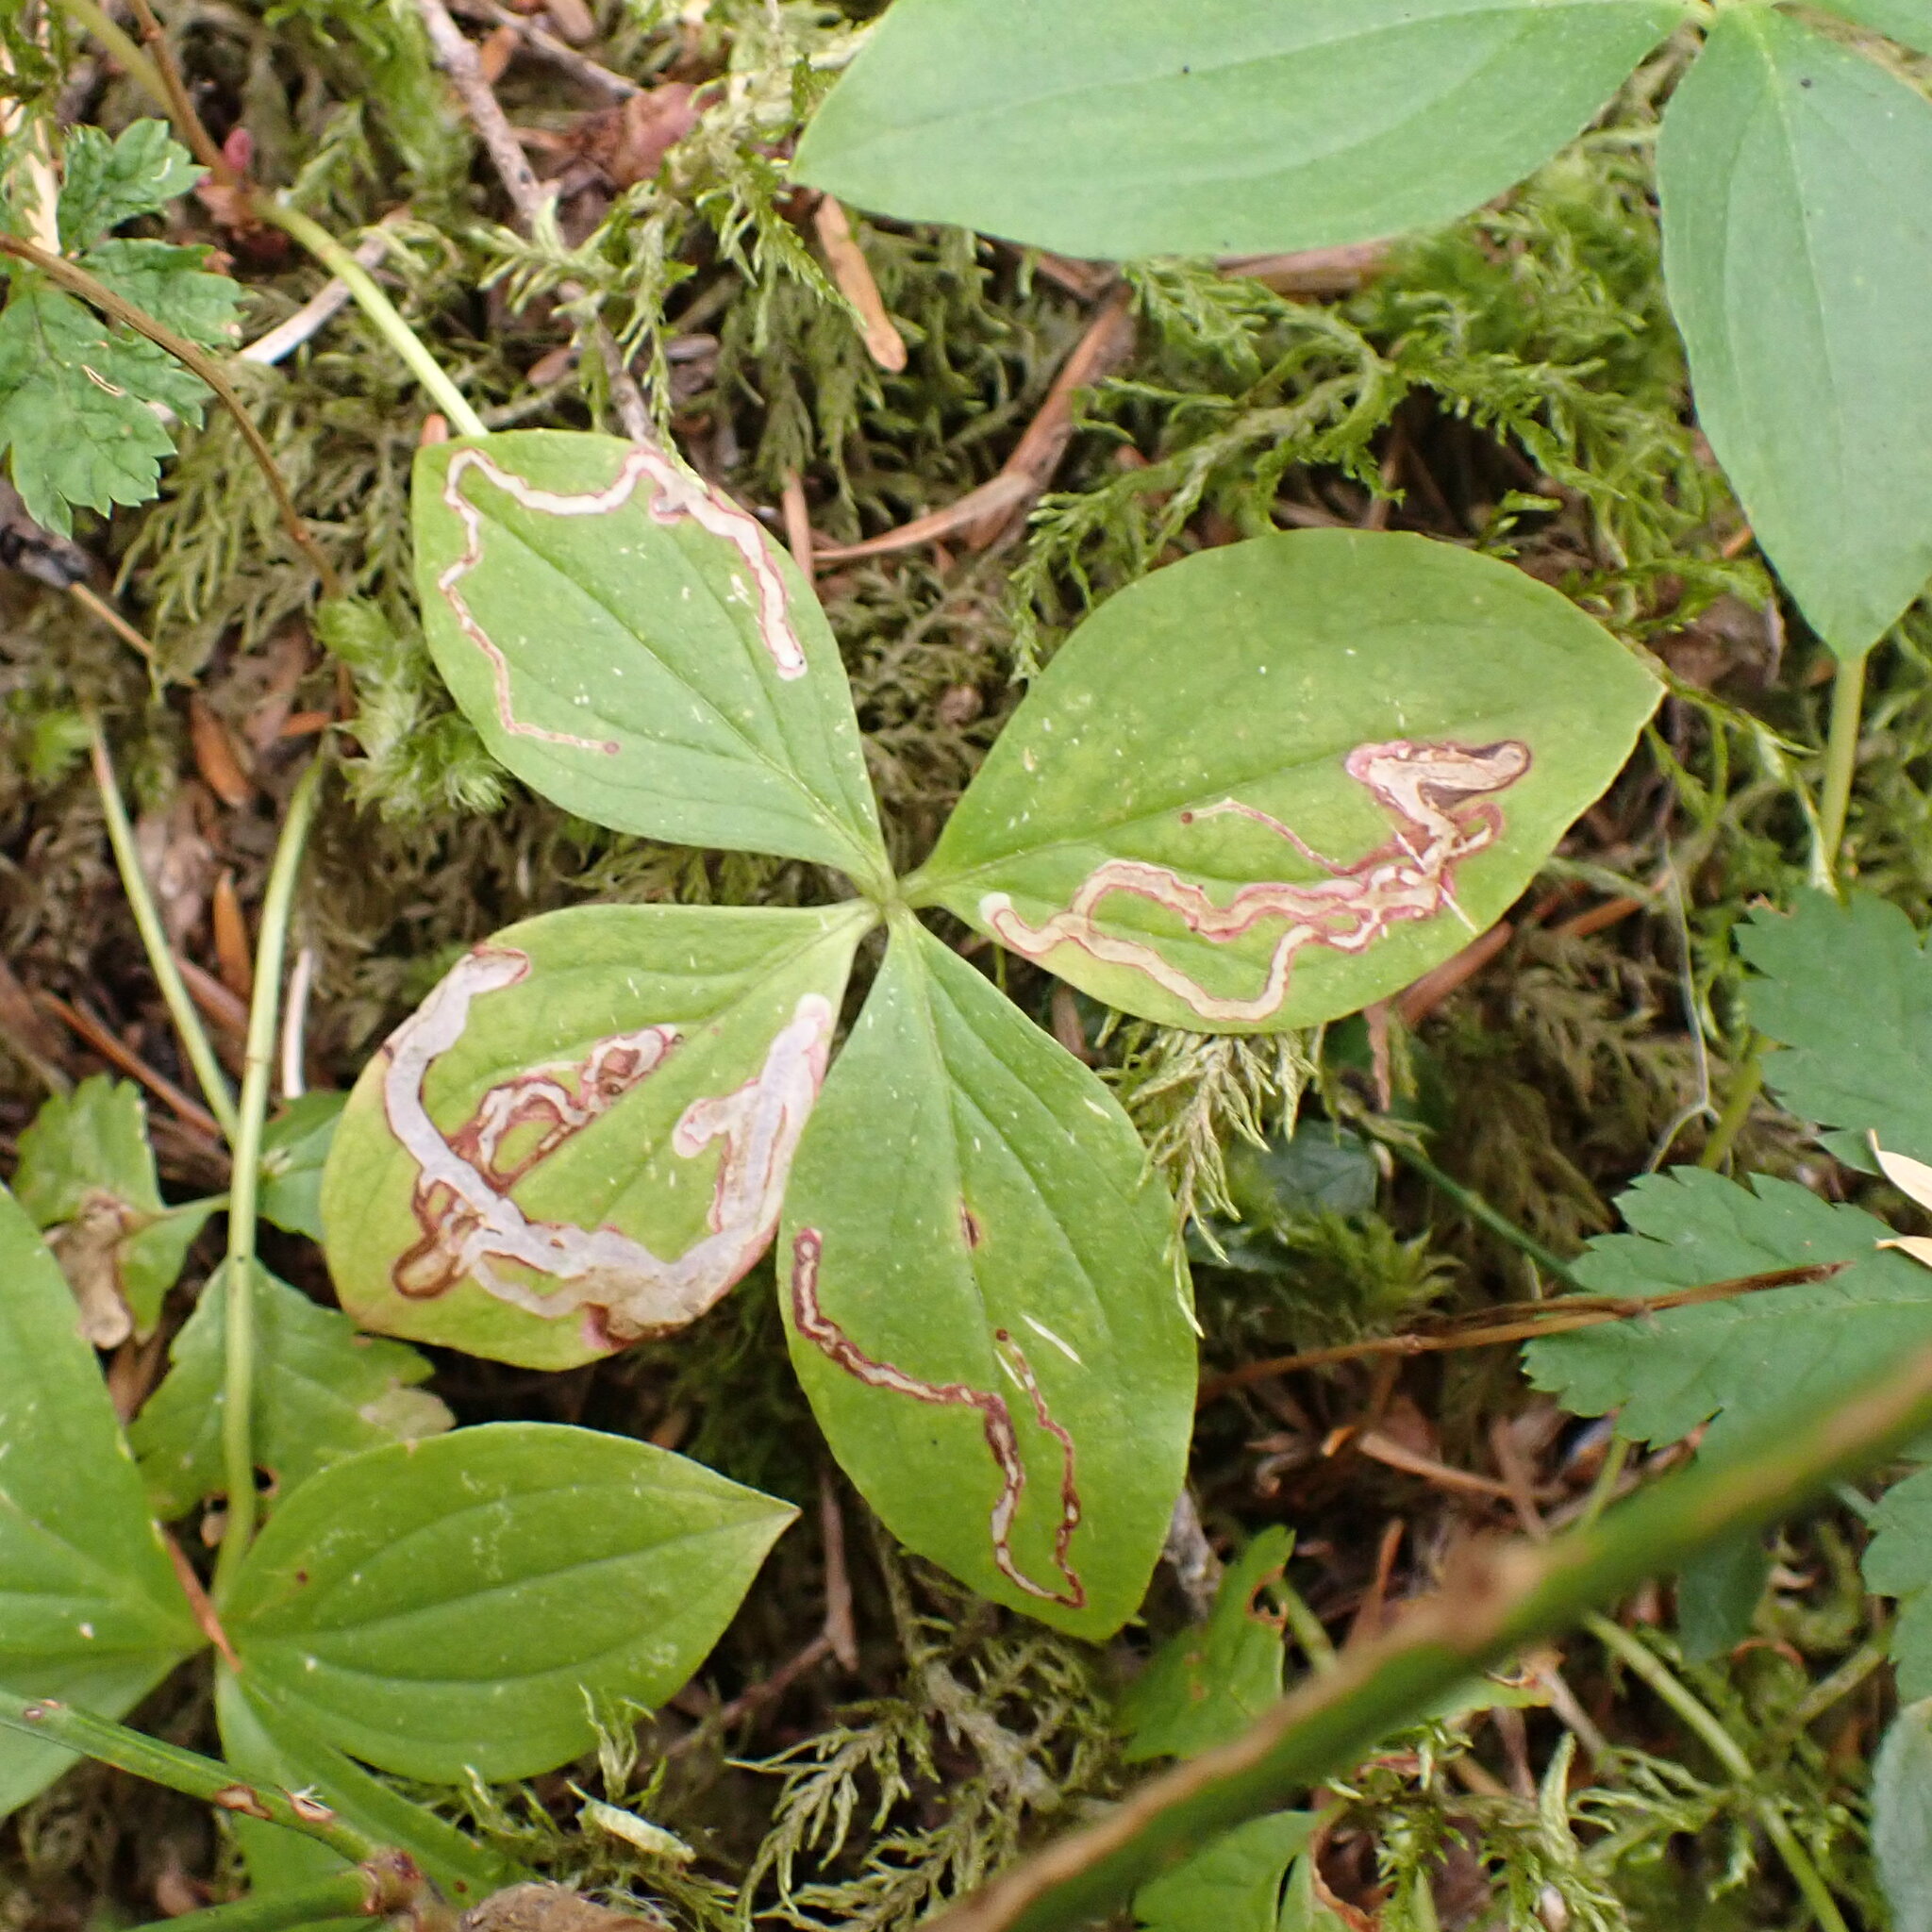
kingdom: Animalia
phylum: Arthropoda
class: Insecta
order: Diptera
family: Agromyzidae
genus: Phytomyza
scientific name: Phytomyza agromyzina
